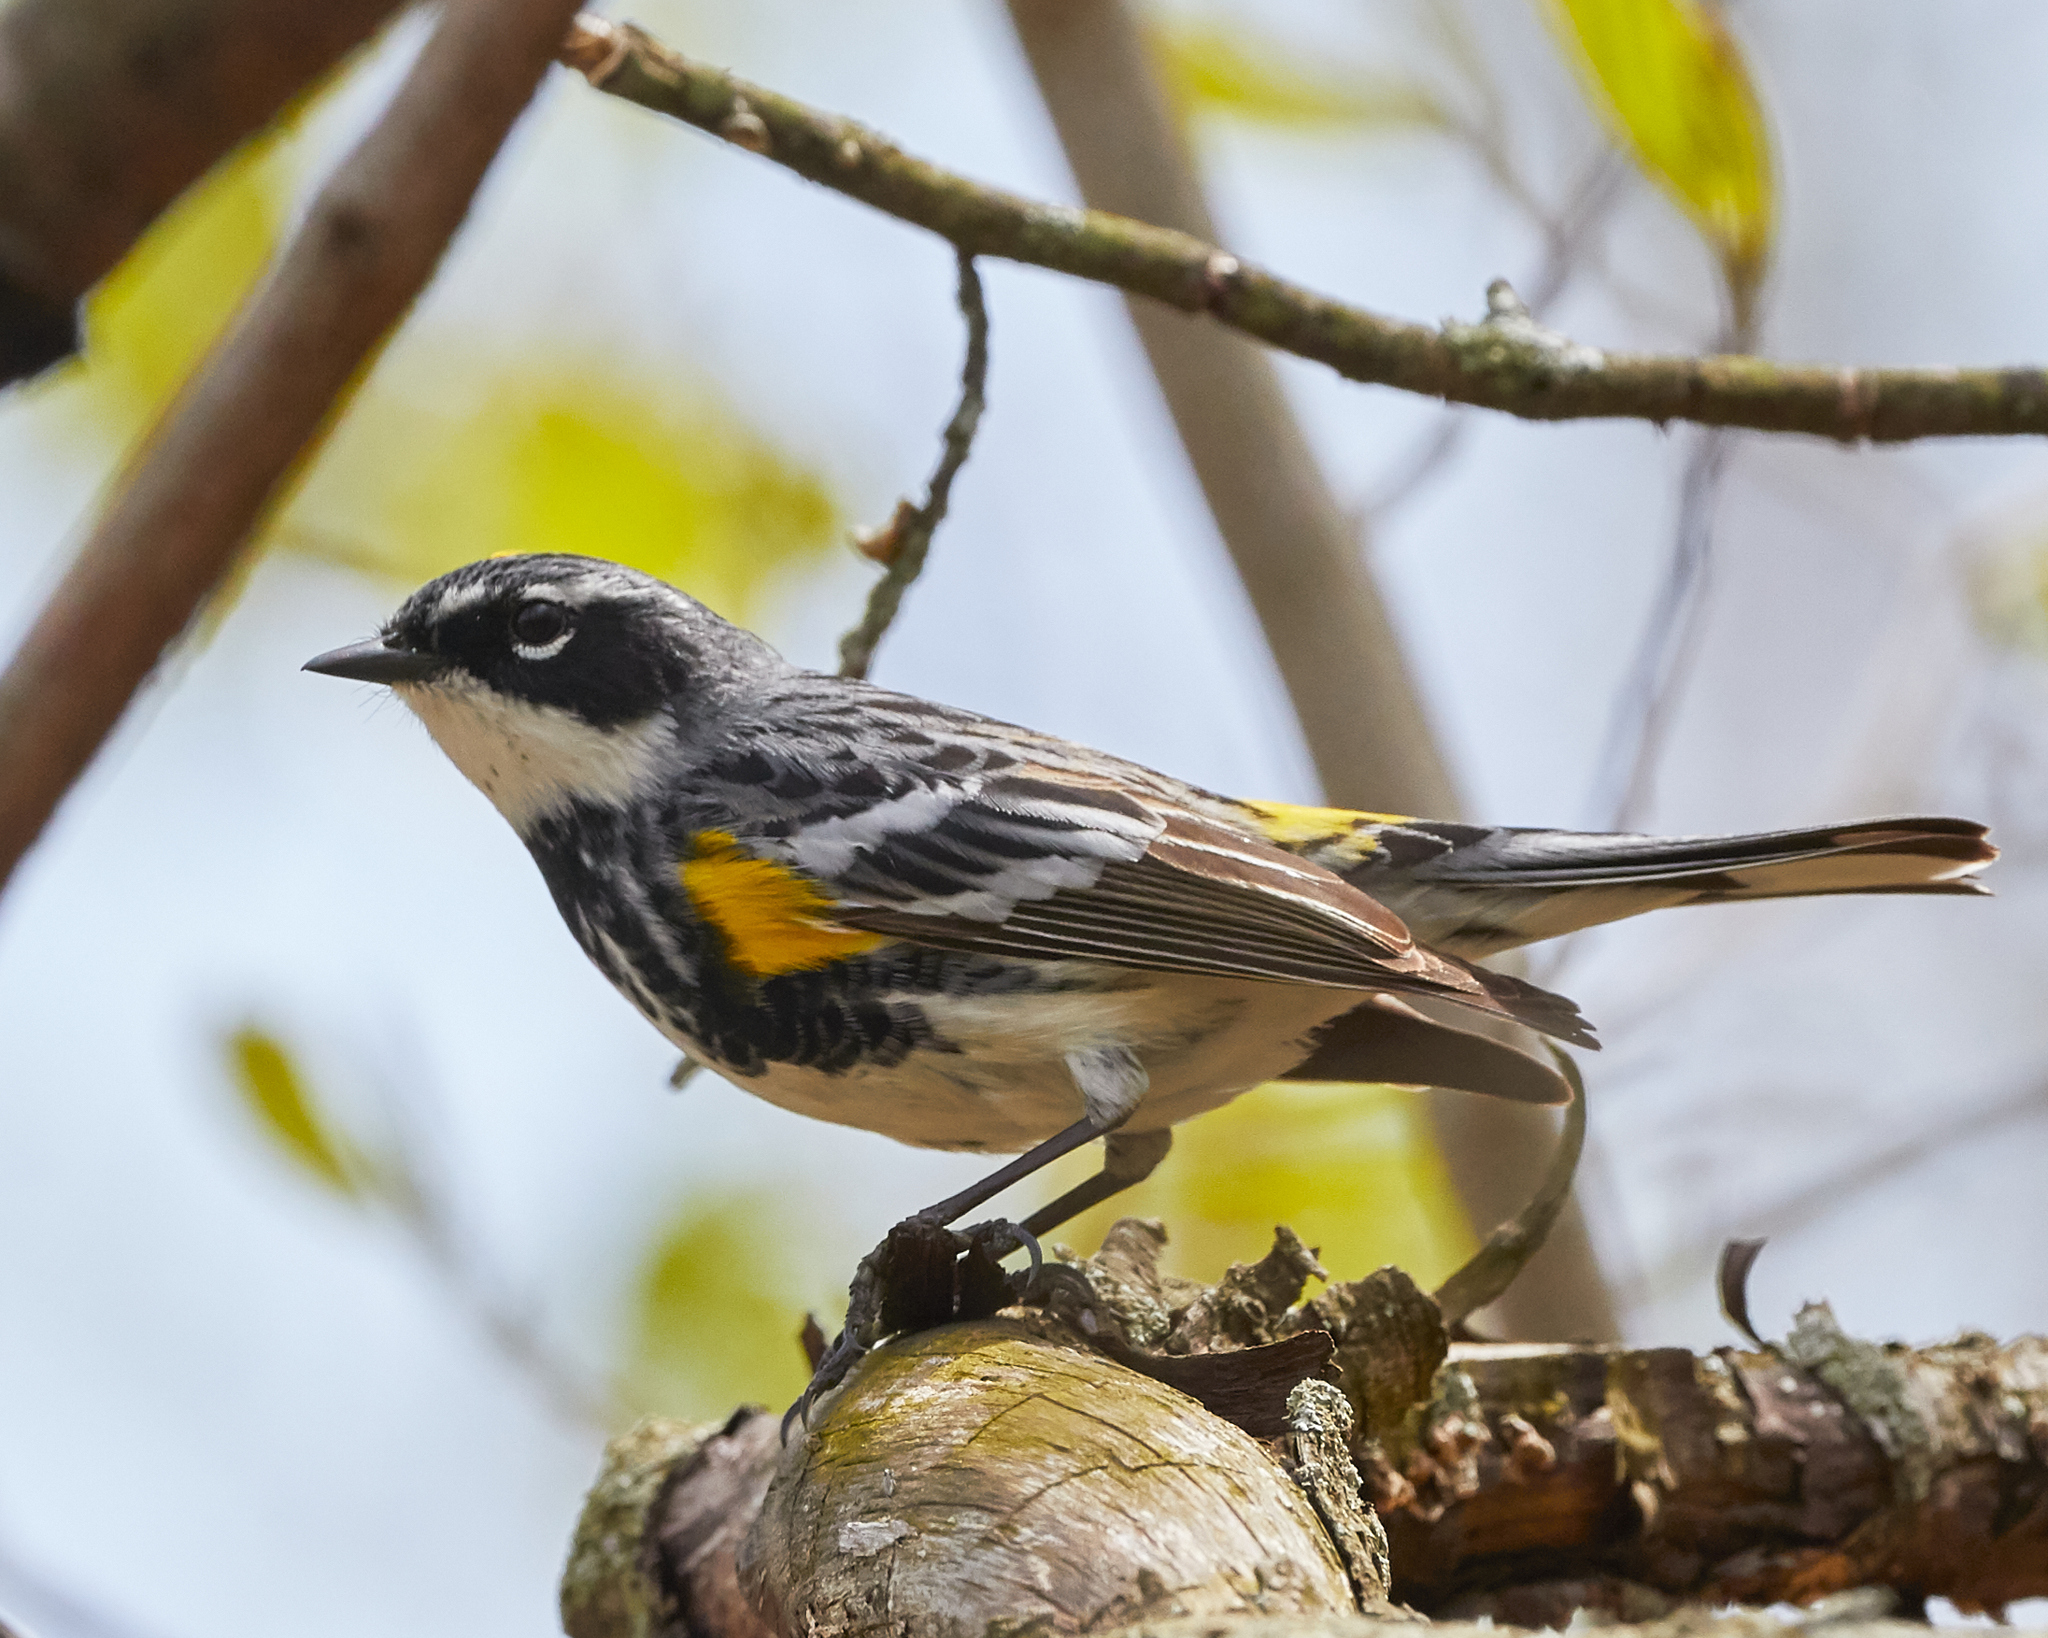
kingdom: Animalia
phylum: Chordata
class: Aves
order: Passeriformes
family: Parulidae
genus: Setophaga
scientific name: Setophaga coronata
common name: Myrtle warbler
